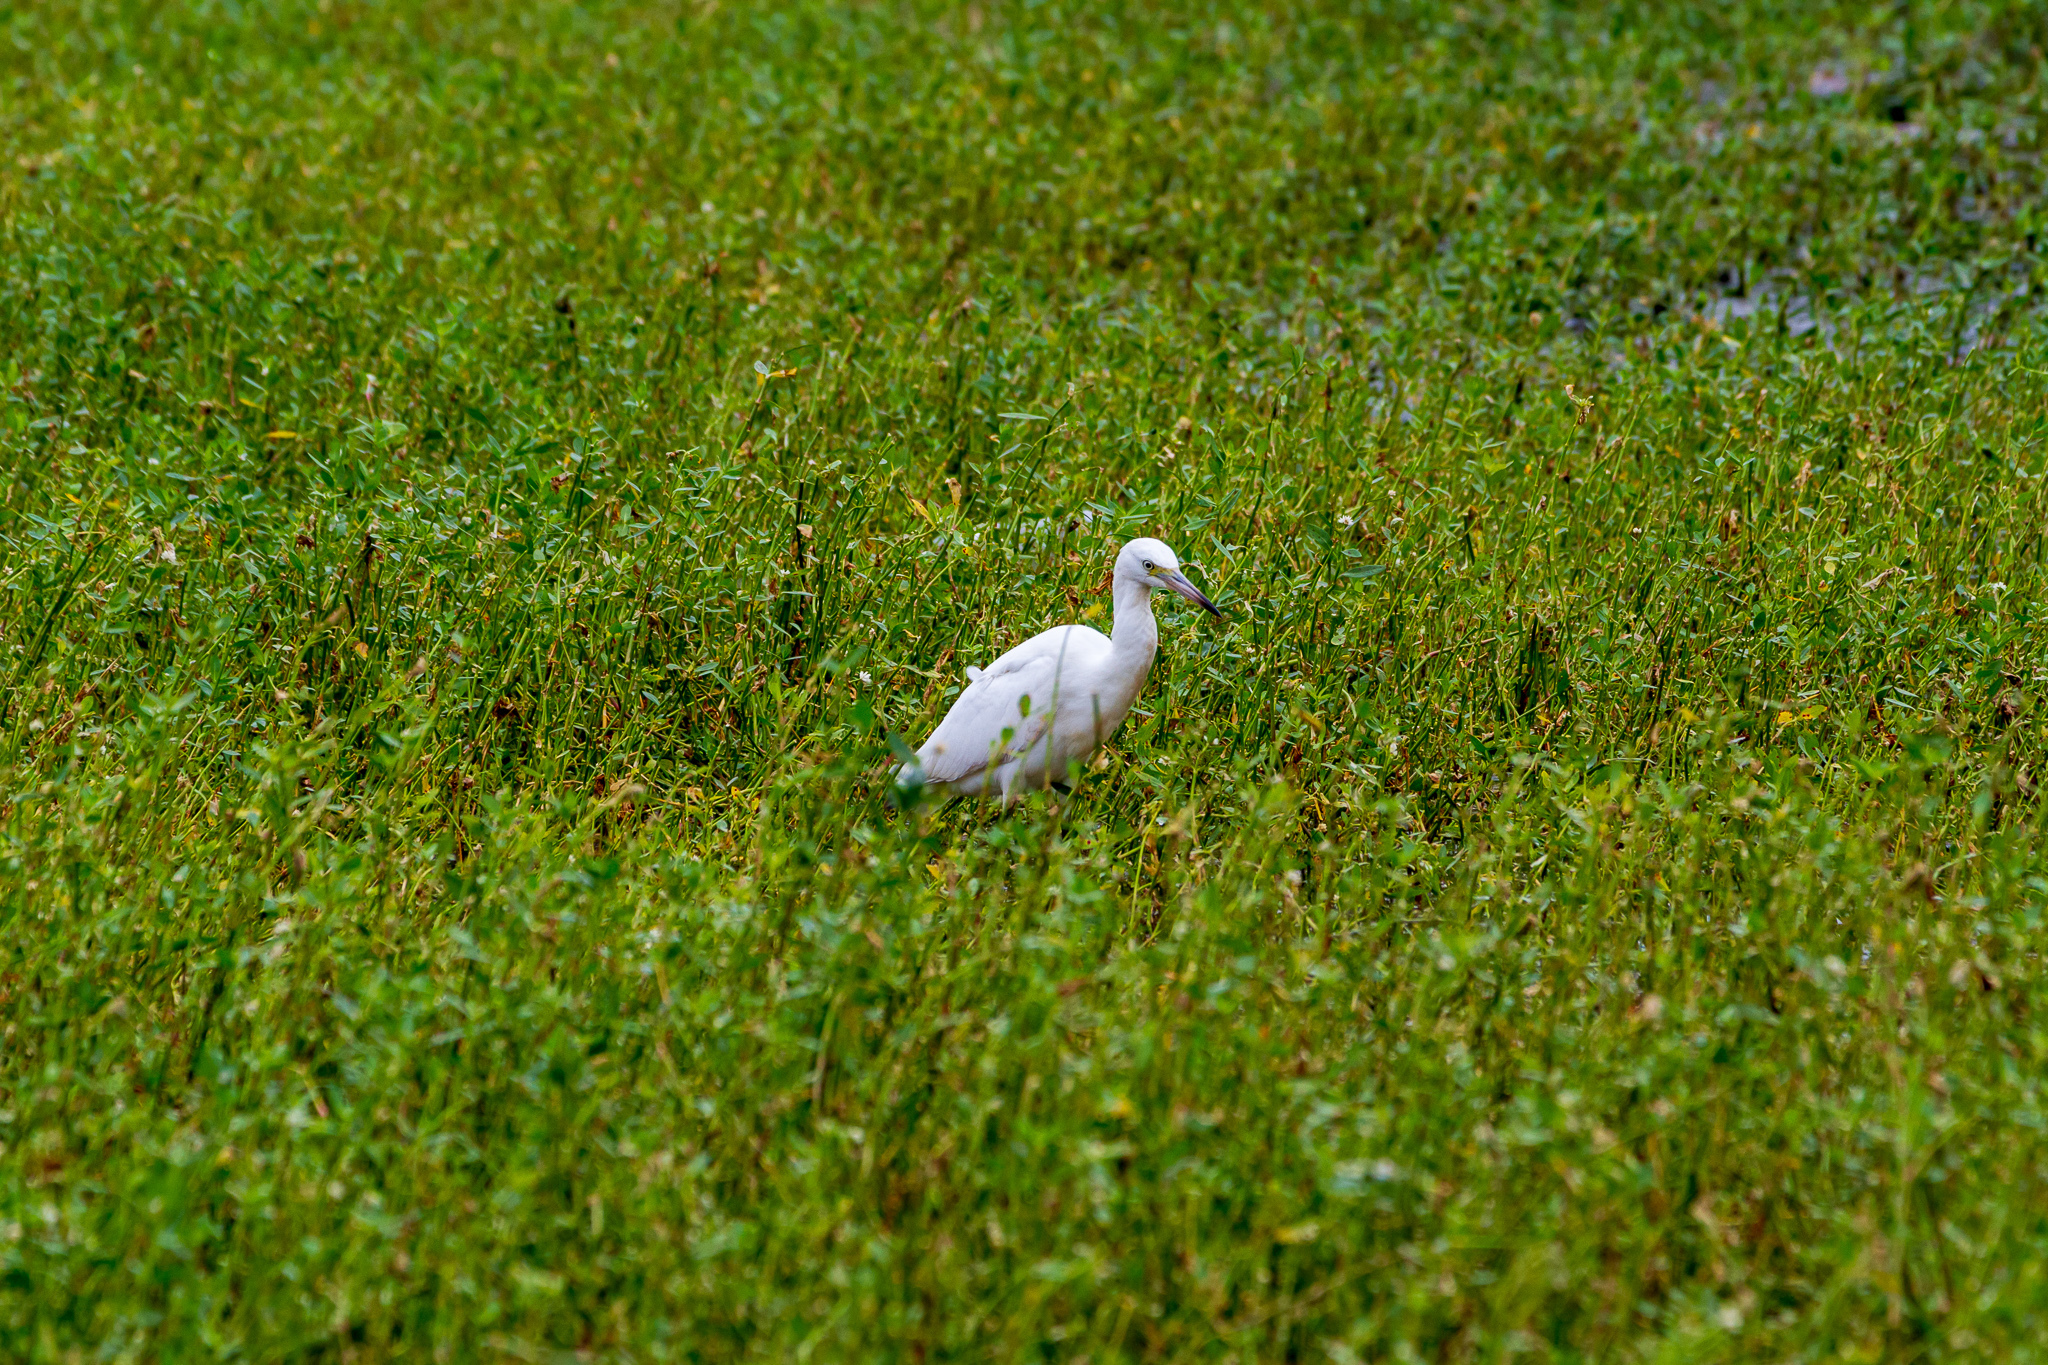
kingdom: Animalia
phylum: Chordata
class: Aves
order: Pelecaniformes
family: Ardeidae
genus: Egretta
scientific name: Egretta caerulea
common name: Little blue heron
